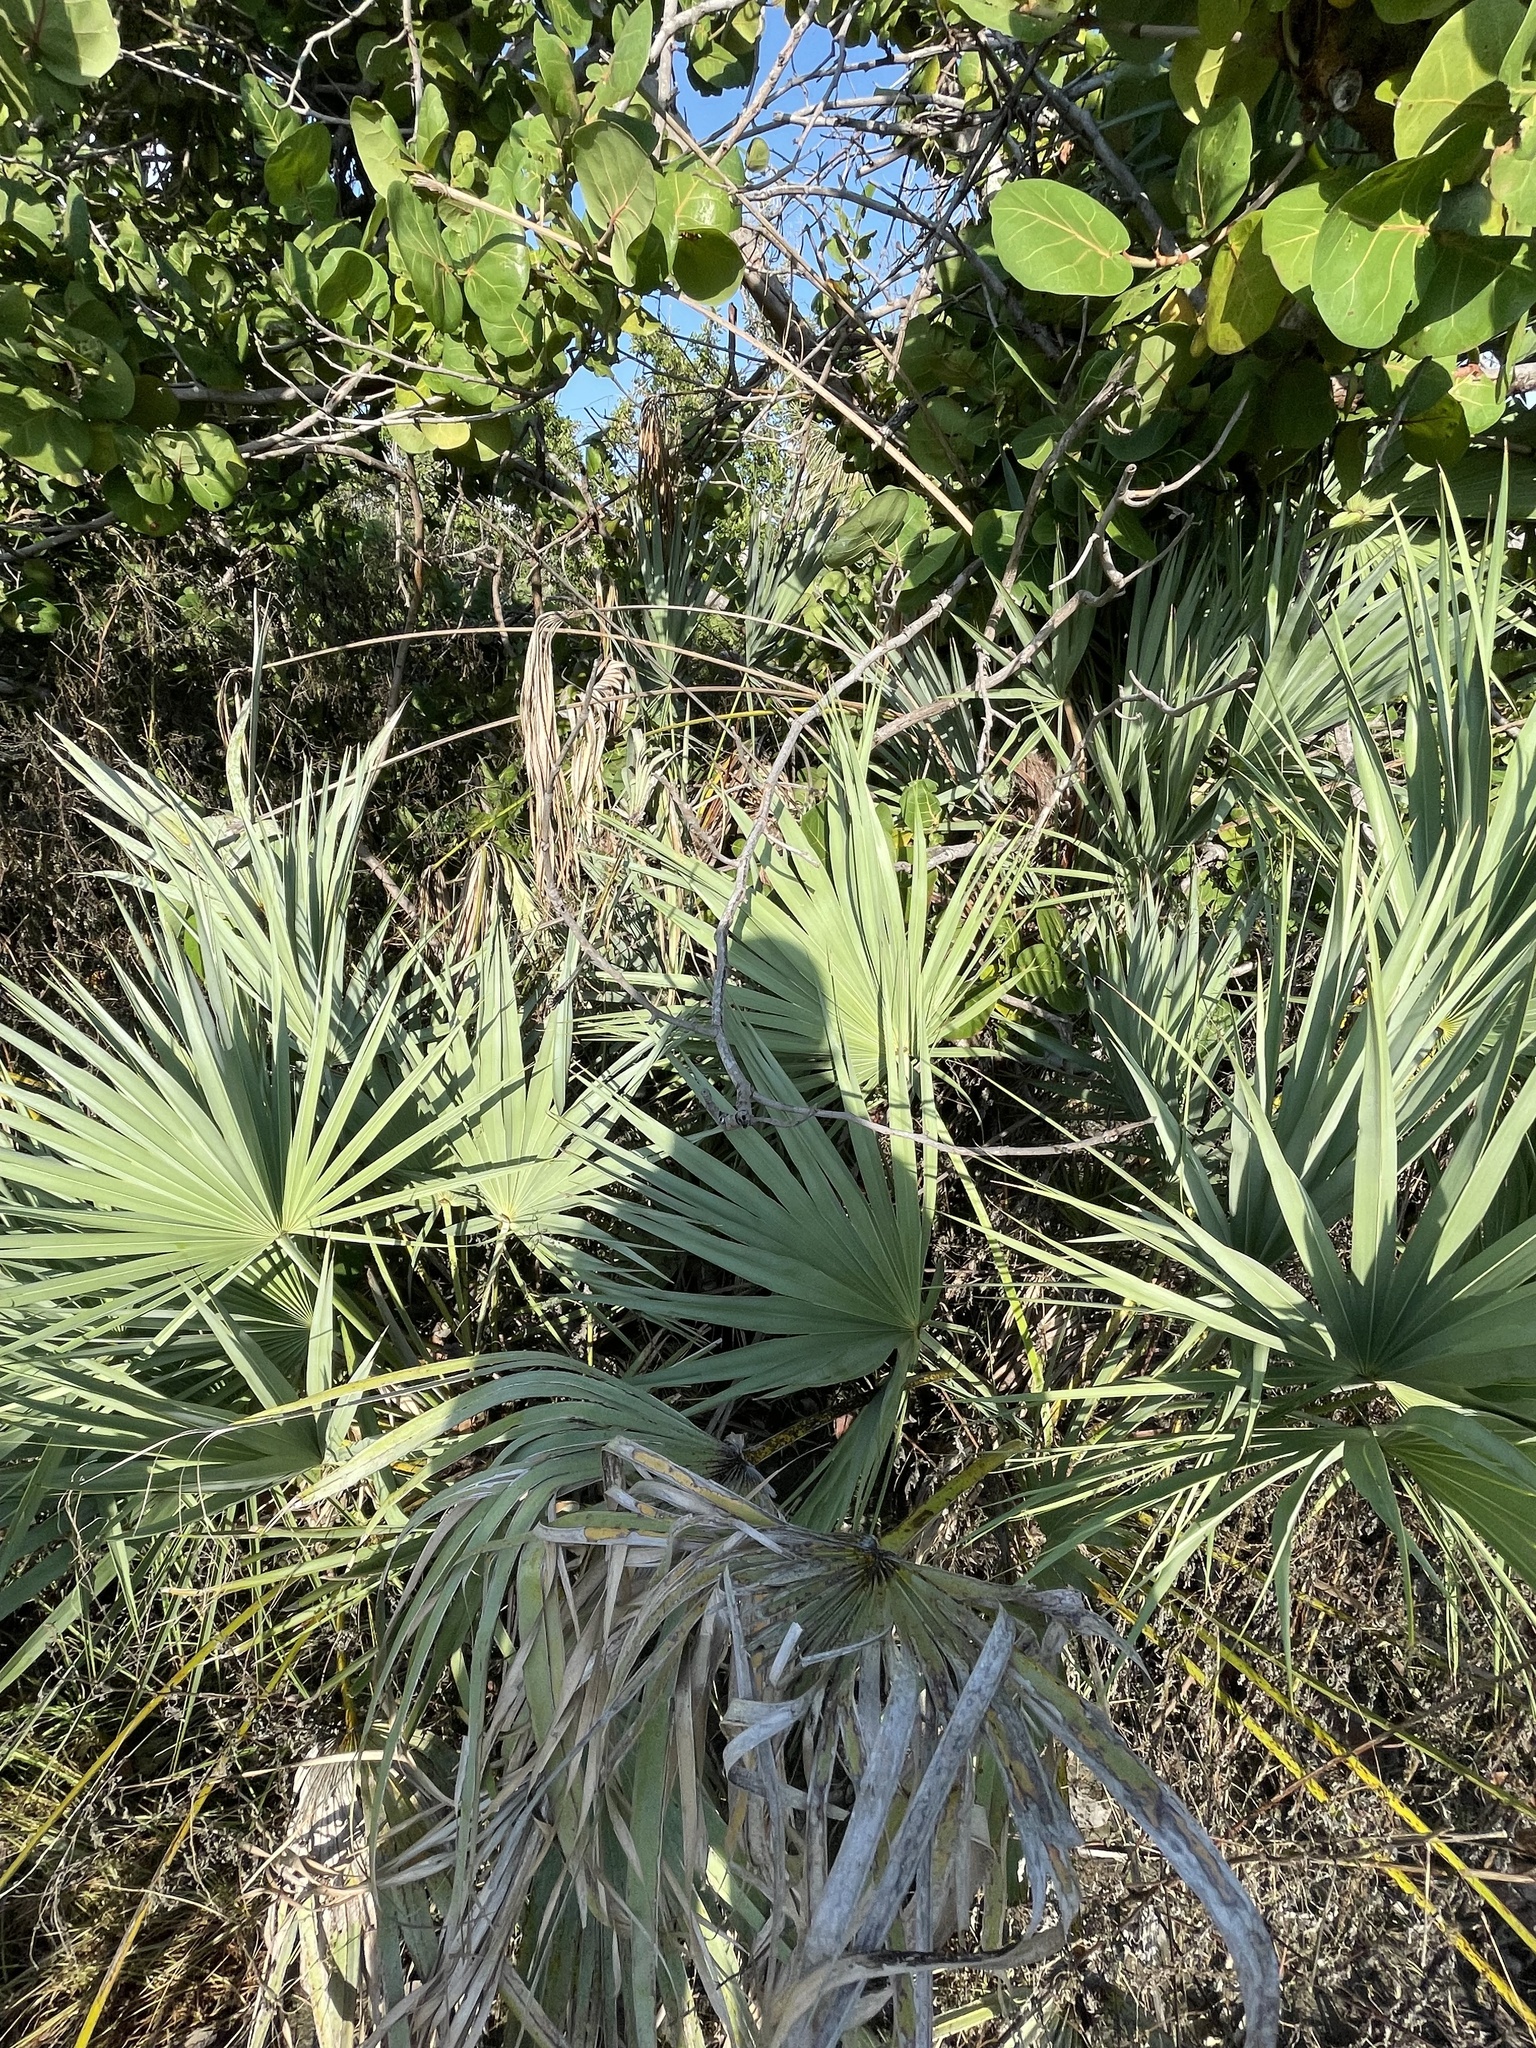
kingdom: Plantae
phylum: Tracheophyta
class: Liliopsida
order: Arecales
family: Arecaceae
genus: Serenoa
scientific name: Serenoa repens
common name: Saw-palmetto
